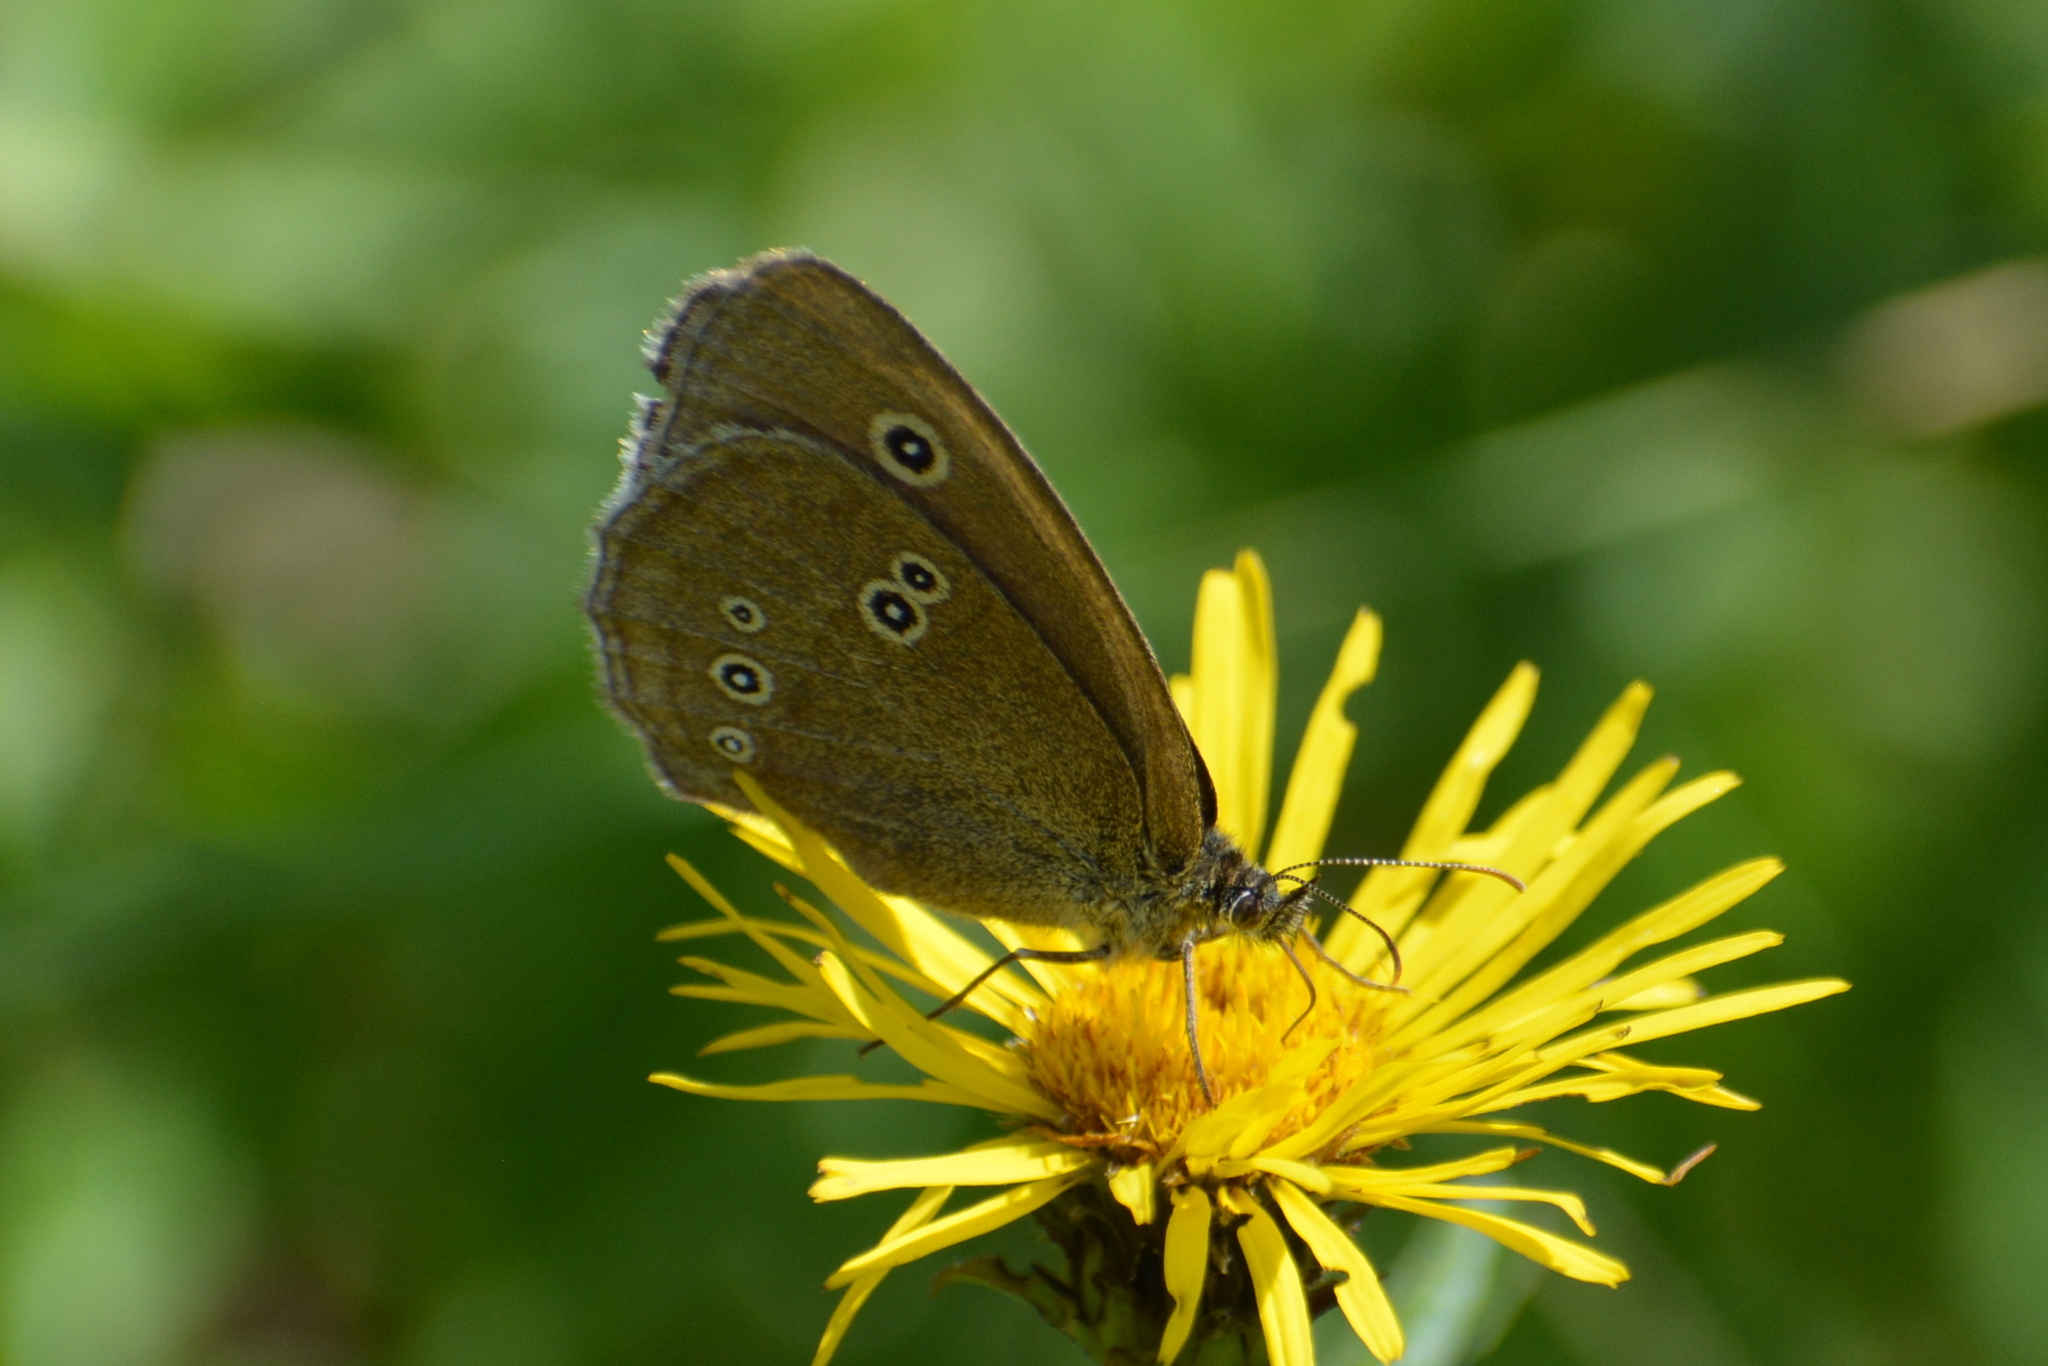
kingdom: Animalia
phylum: Arthropoda
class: Insecta
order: Lepidoptera
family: Nymphalidae
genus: Aphantopus
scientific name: Aphantopus hyperantus
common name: Ringlet
